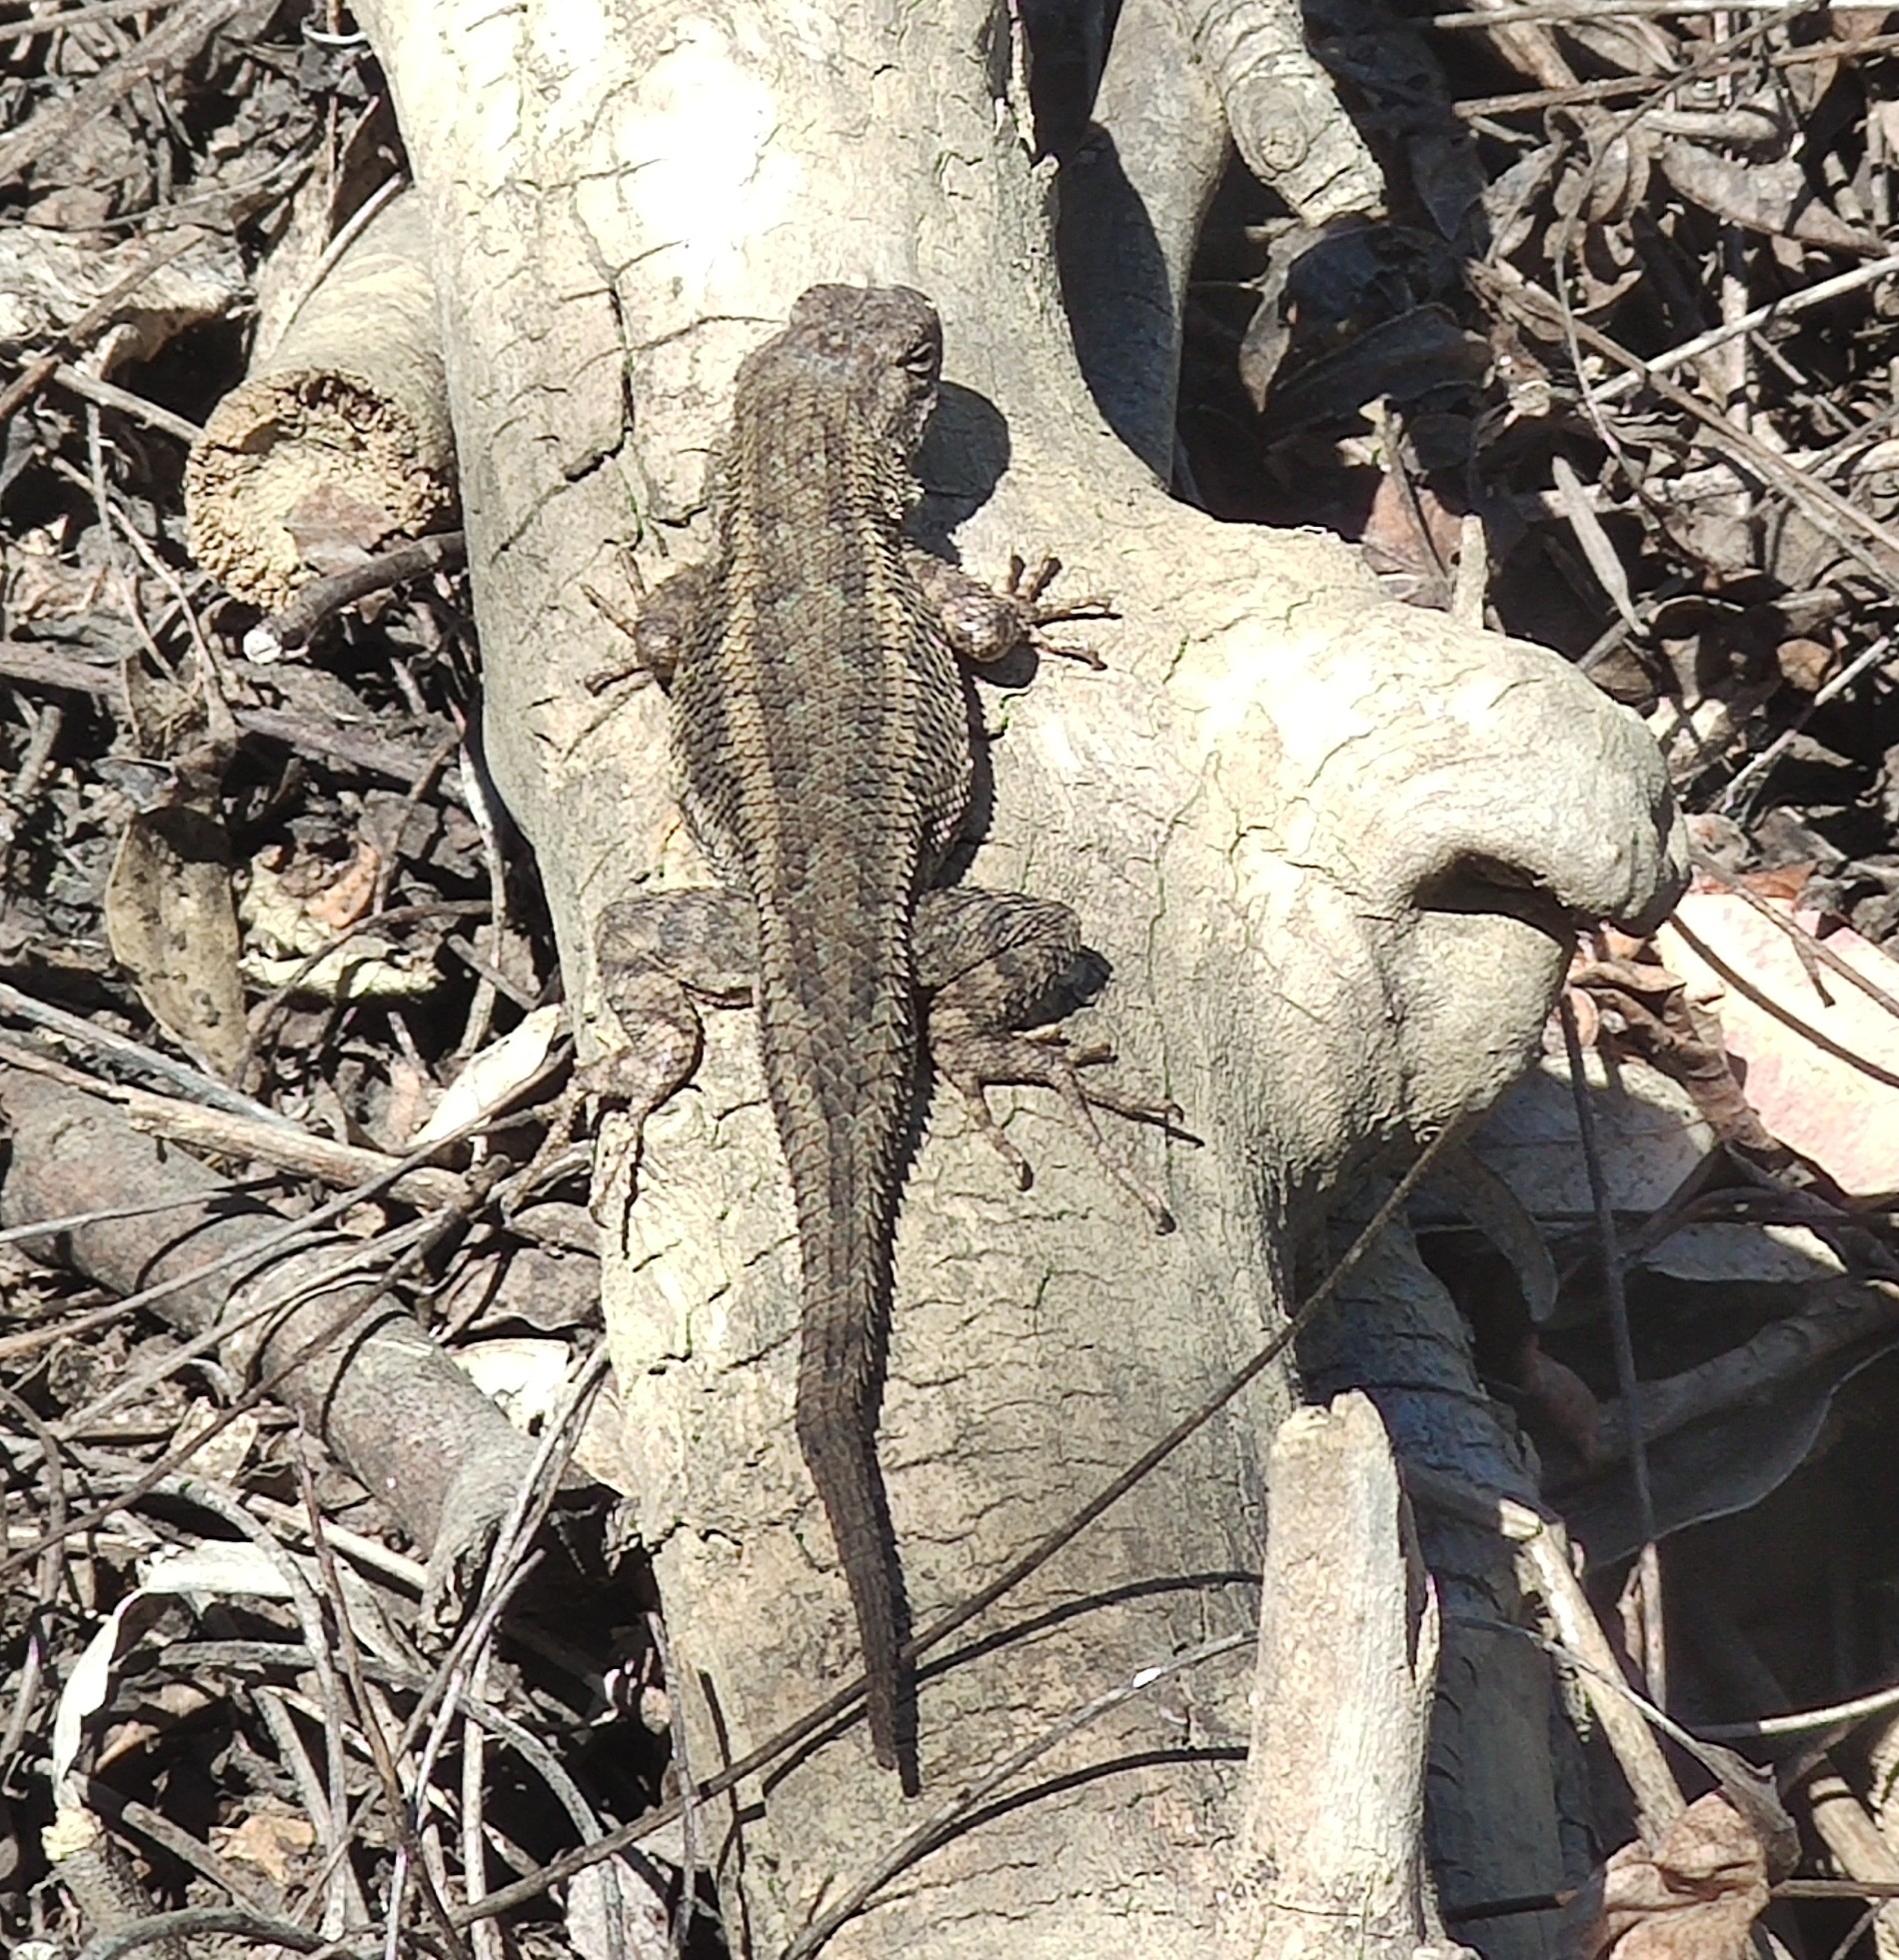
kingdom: Animalia
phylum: Chordata
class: Squamata
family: Phrynosomatidae
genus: Sceloporus
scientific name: Sceloporus occidentalis
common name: Western fence lizard
